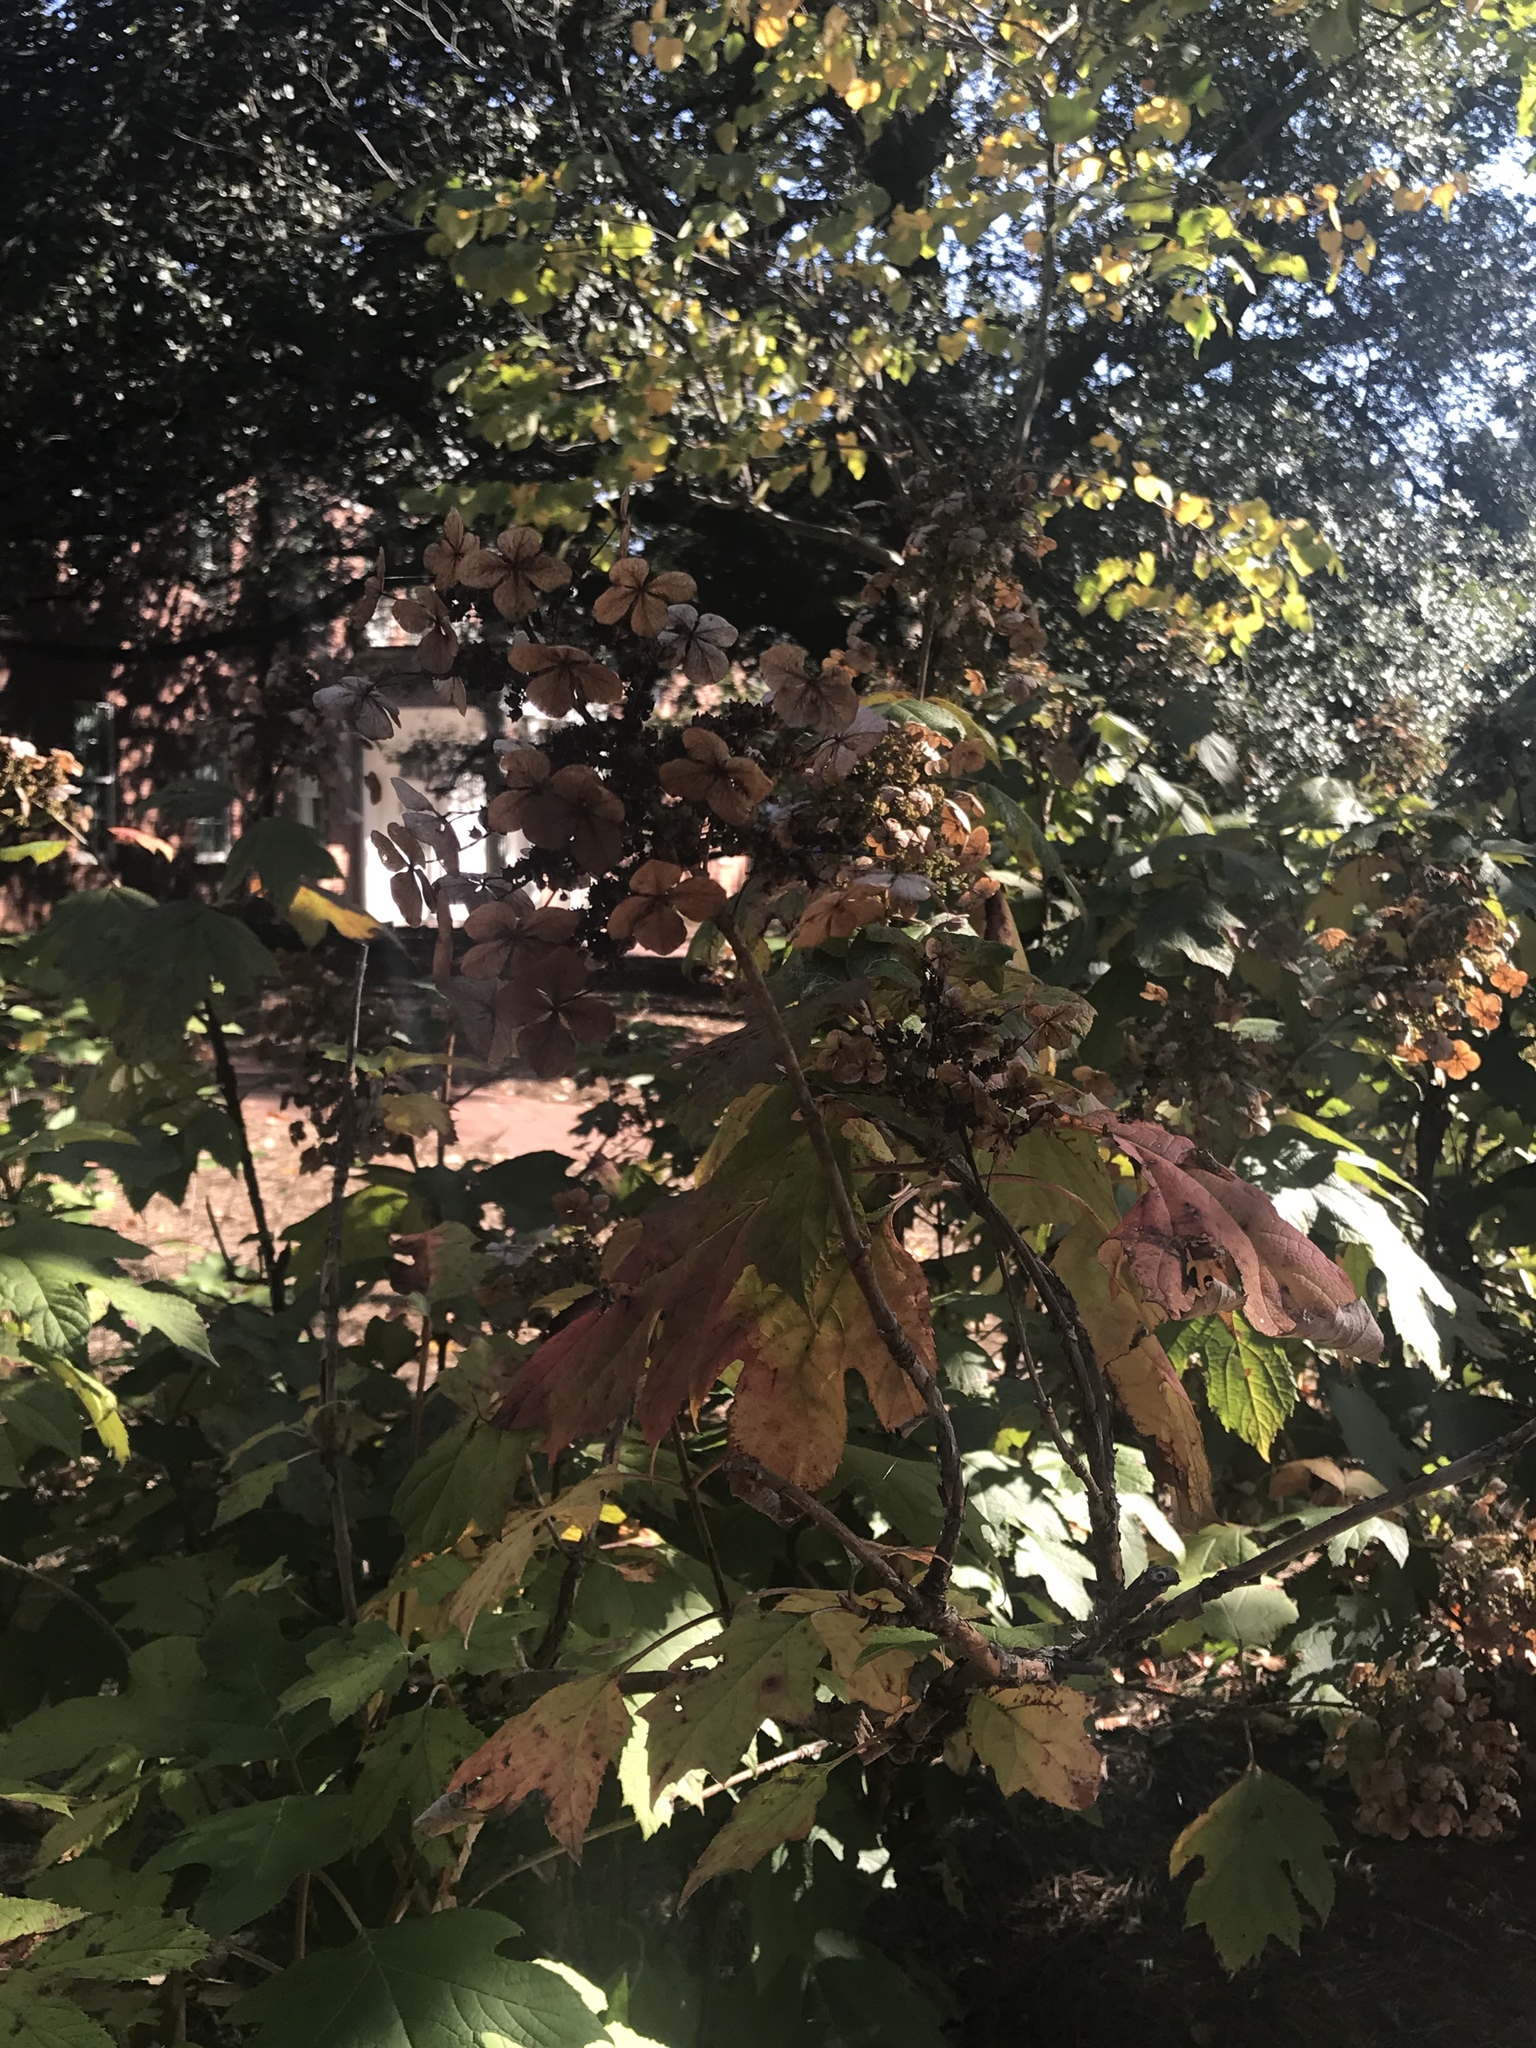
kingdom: Plantae
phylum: Tracheophyta
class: Magnoliopsida
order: Cornales
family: Hydrangeaceae
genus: Hydrangea
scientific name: Hydrangea quercifolia
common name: Oak-leaf hydrangea
